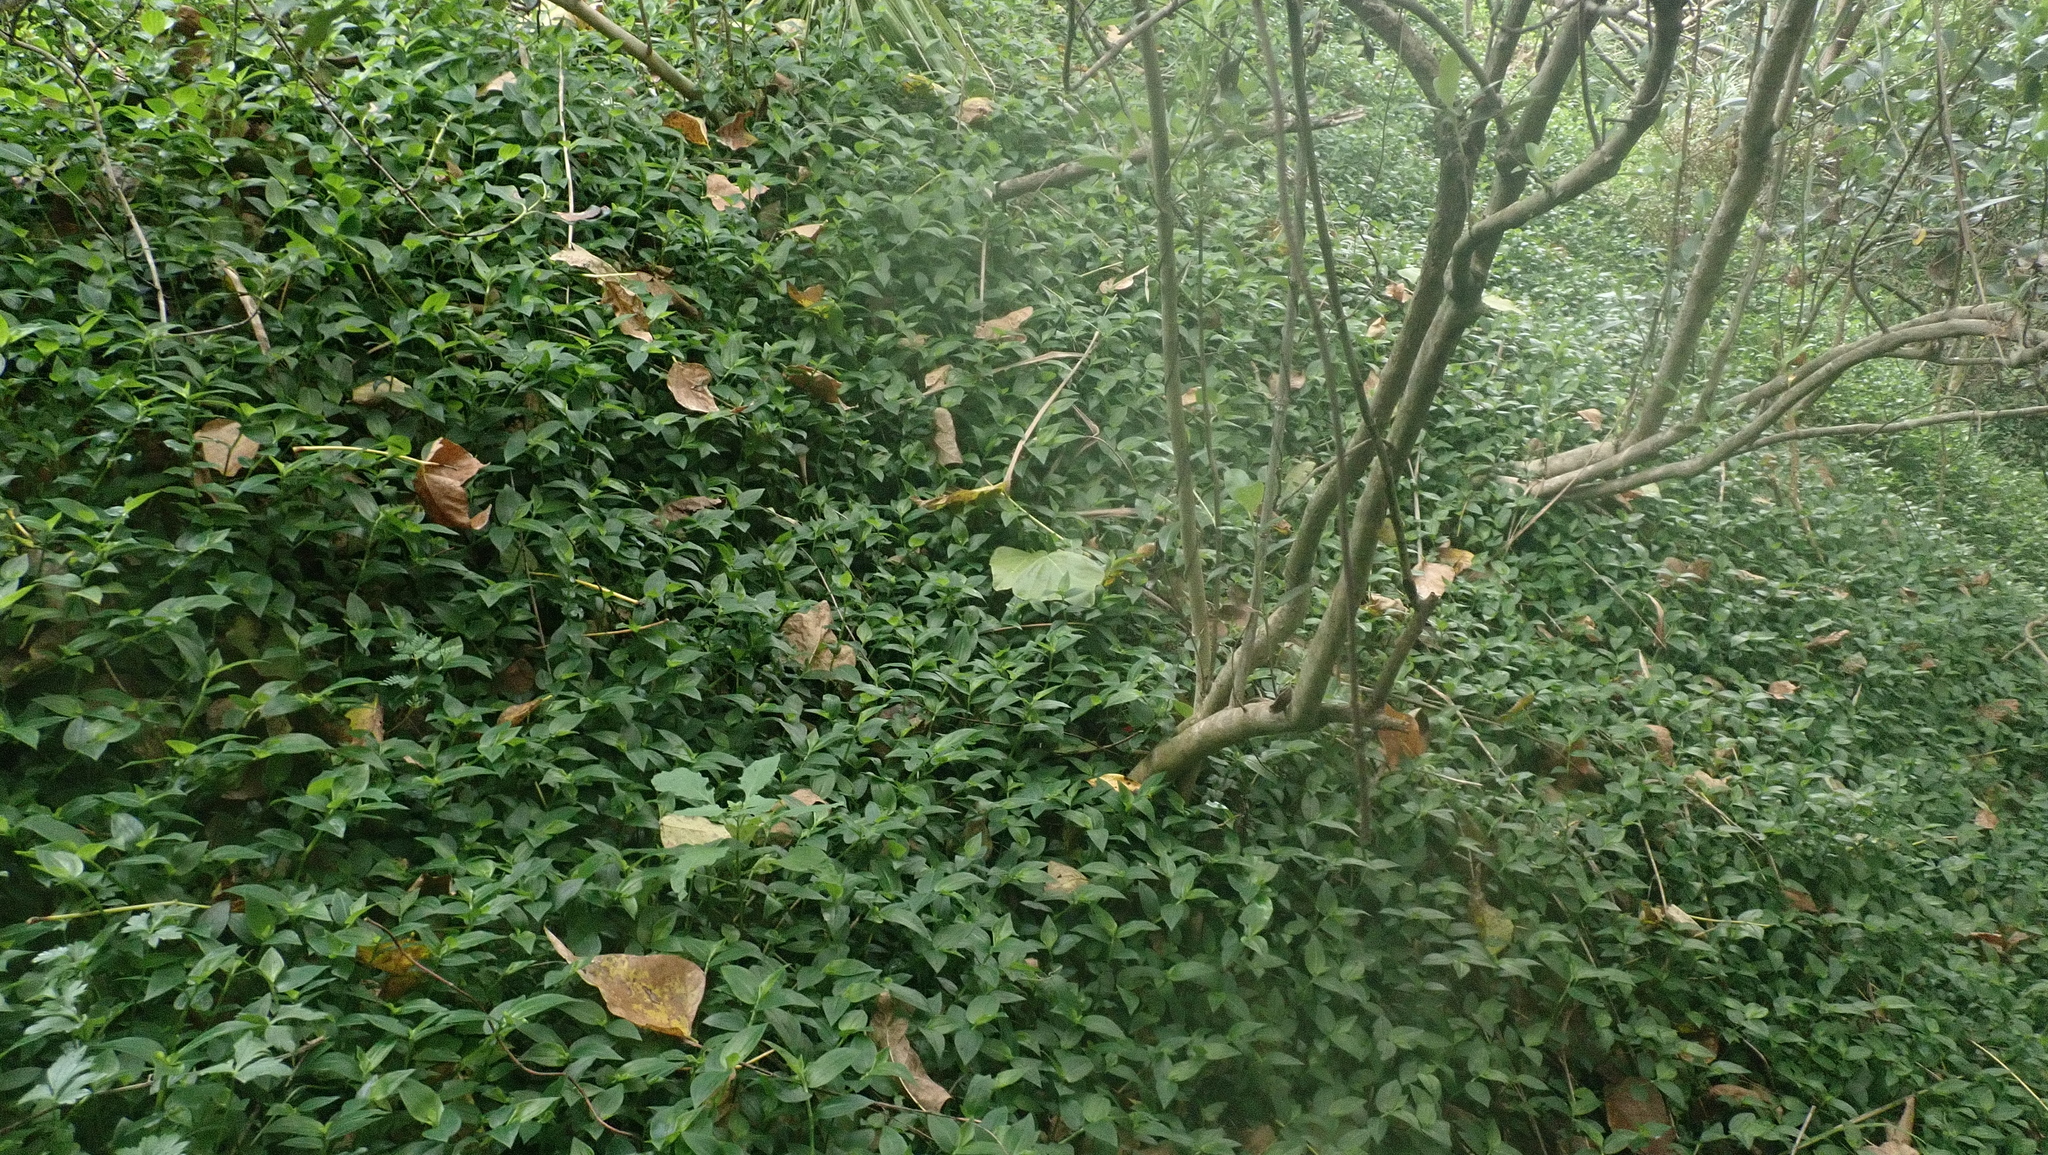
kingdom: Plantae
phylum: Tracheophyta
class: Liliopsida
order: Commelinales
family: Commelinaceae
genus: Tradescantia
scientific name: Tradescantia fluminensis
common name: Wandering-jew
